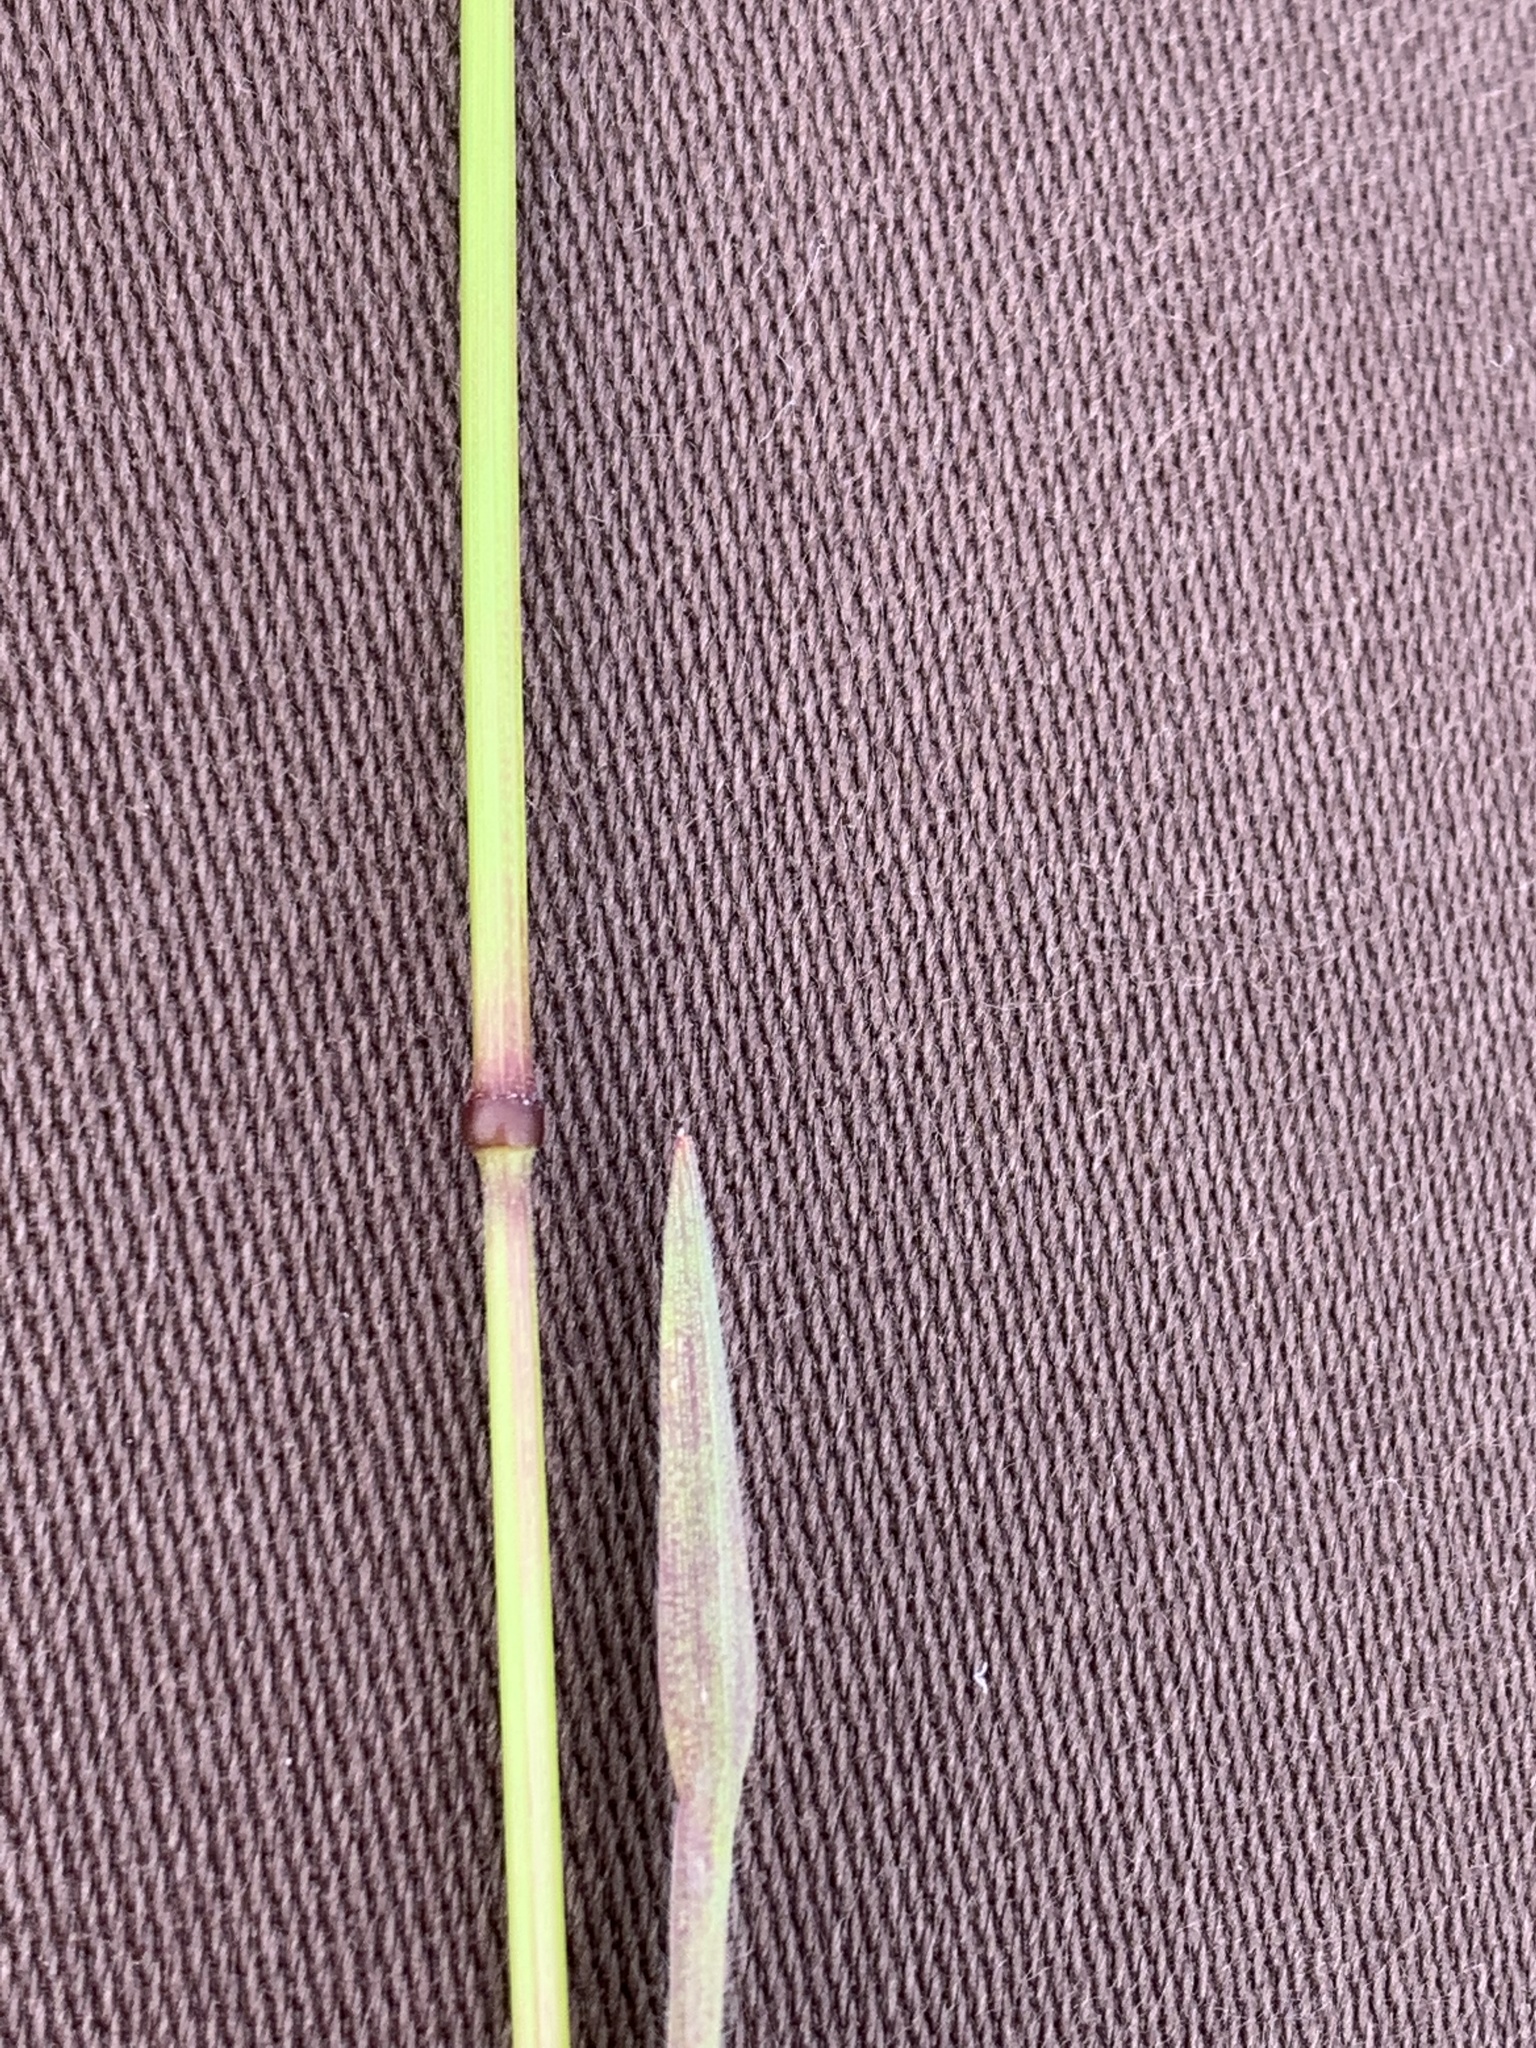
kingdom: Plantae
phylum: Tracheophyta
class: Liliopsida
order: Poales
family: Poaceae
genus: Bromus
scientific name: Bromus diandrus
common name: Ripgut brome
